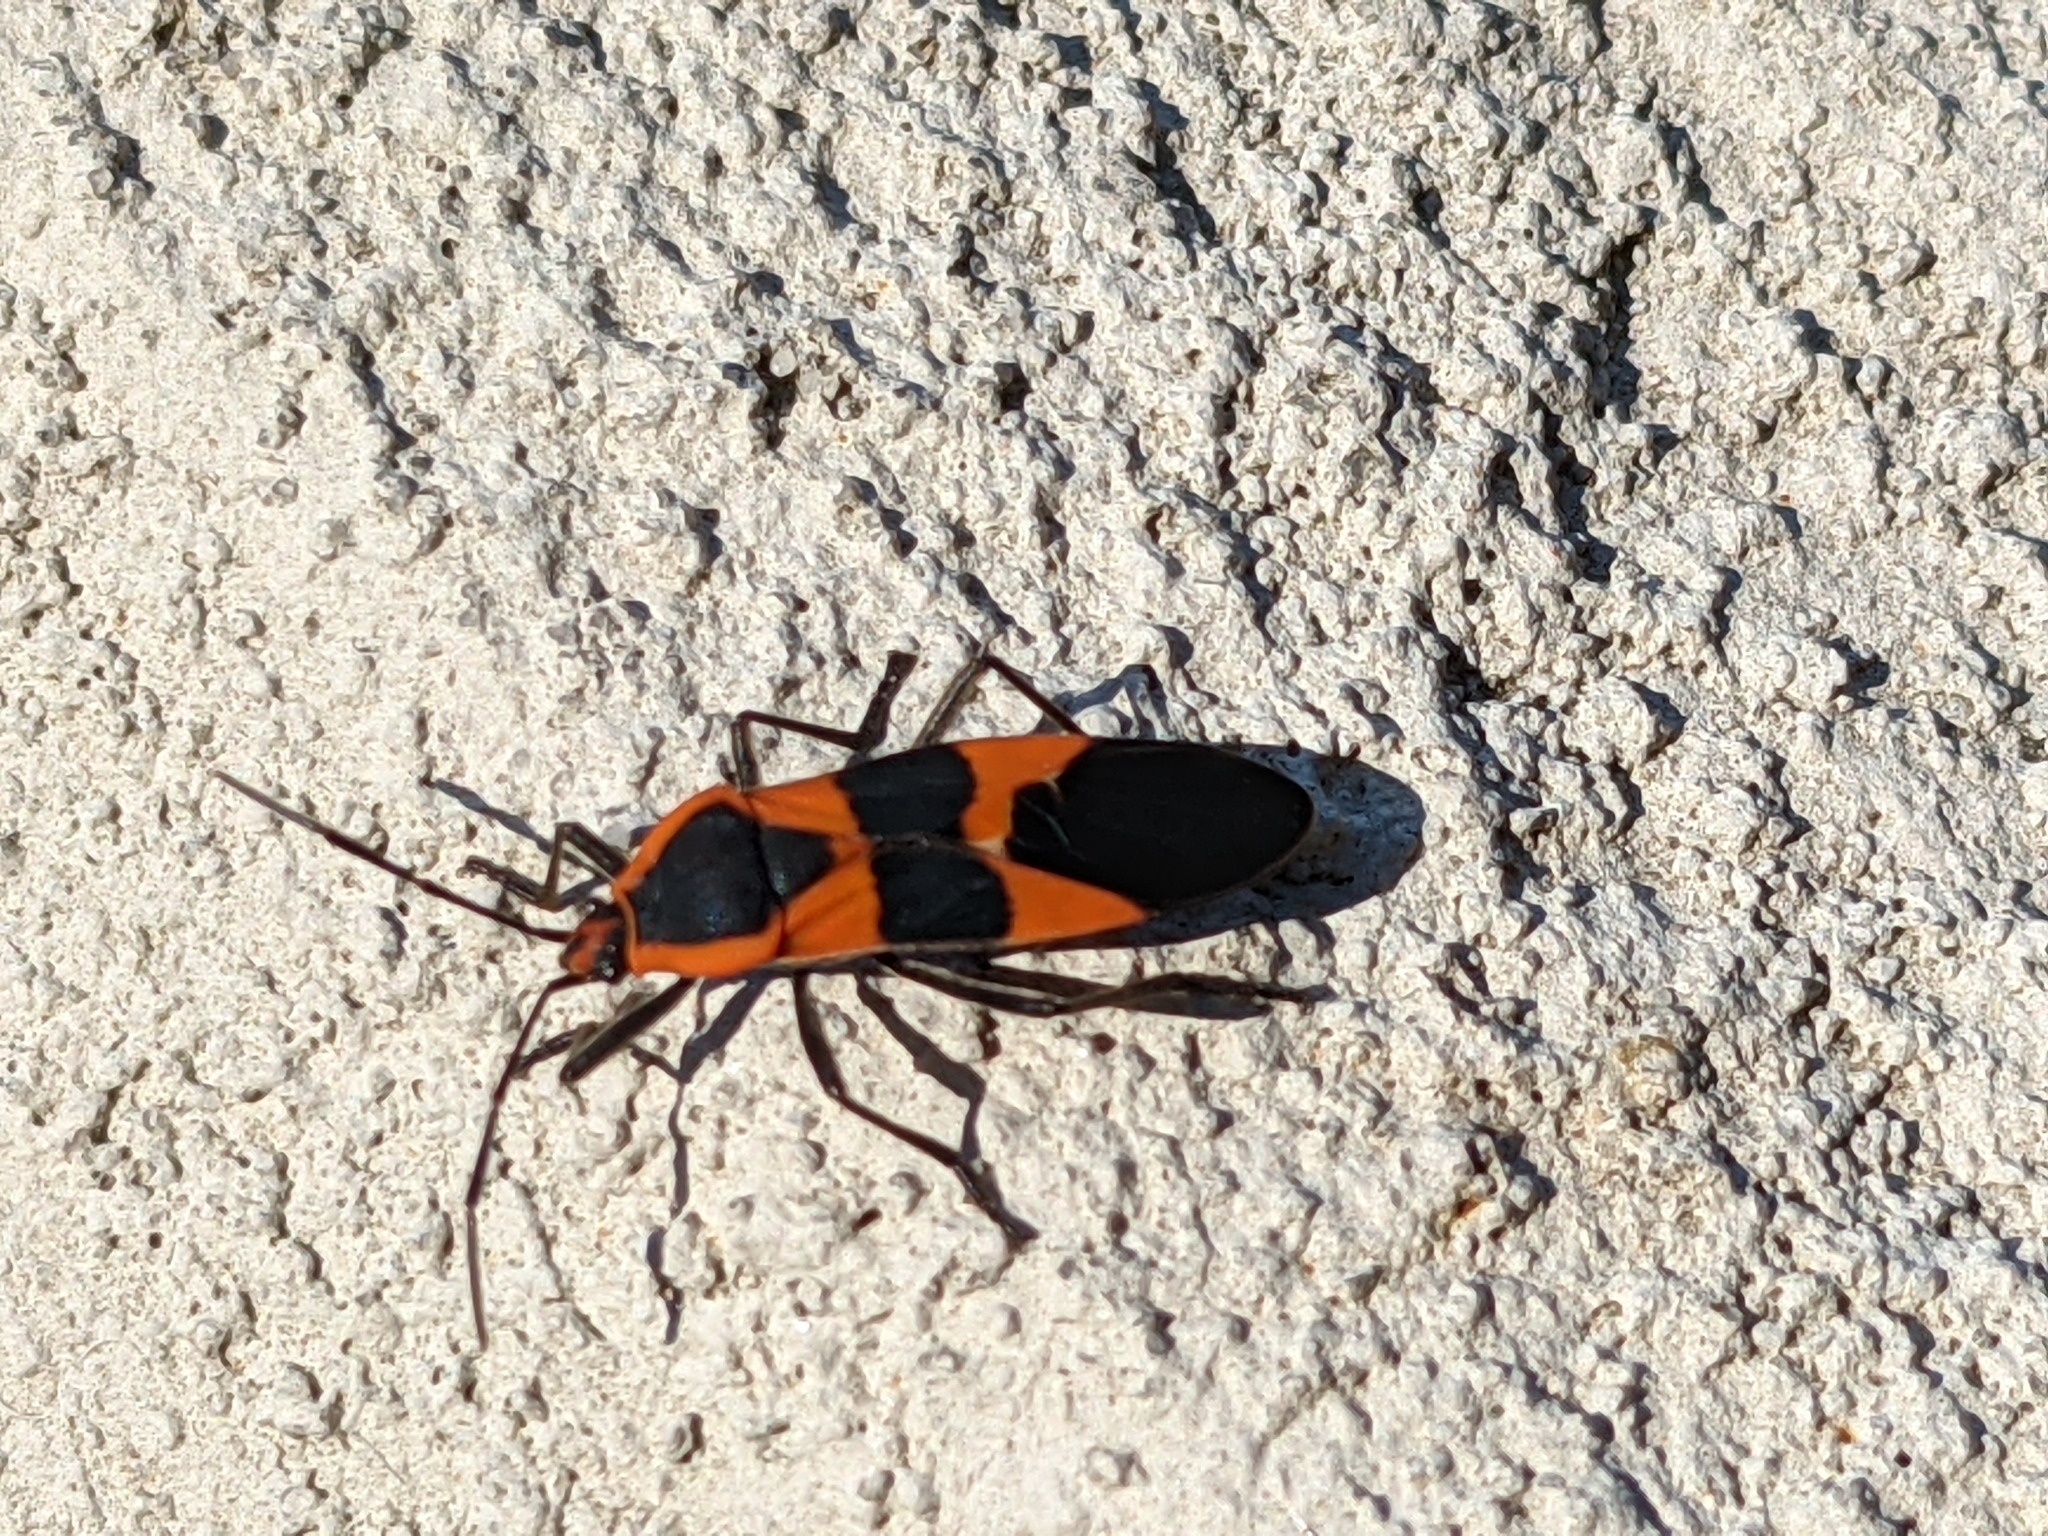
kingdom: Animalia
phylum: Arthropoda
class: Insecta
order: Hemiptera
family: Lygaeidae
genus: Oncopeltus
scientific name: Oncopeltus fasciatus
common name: Large milkweed bug
